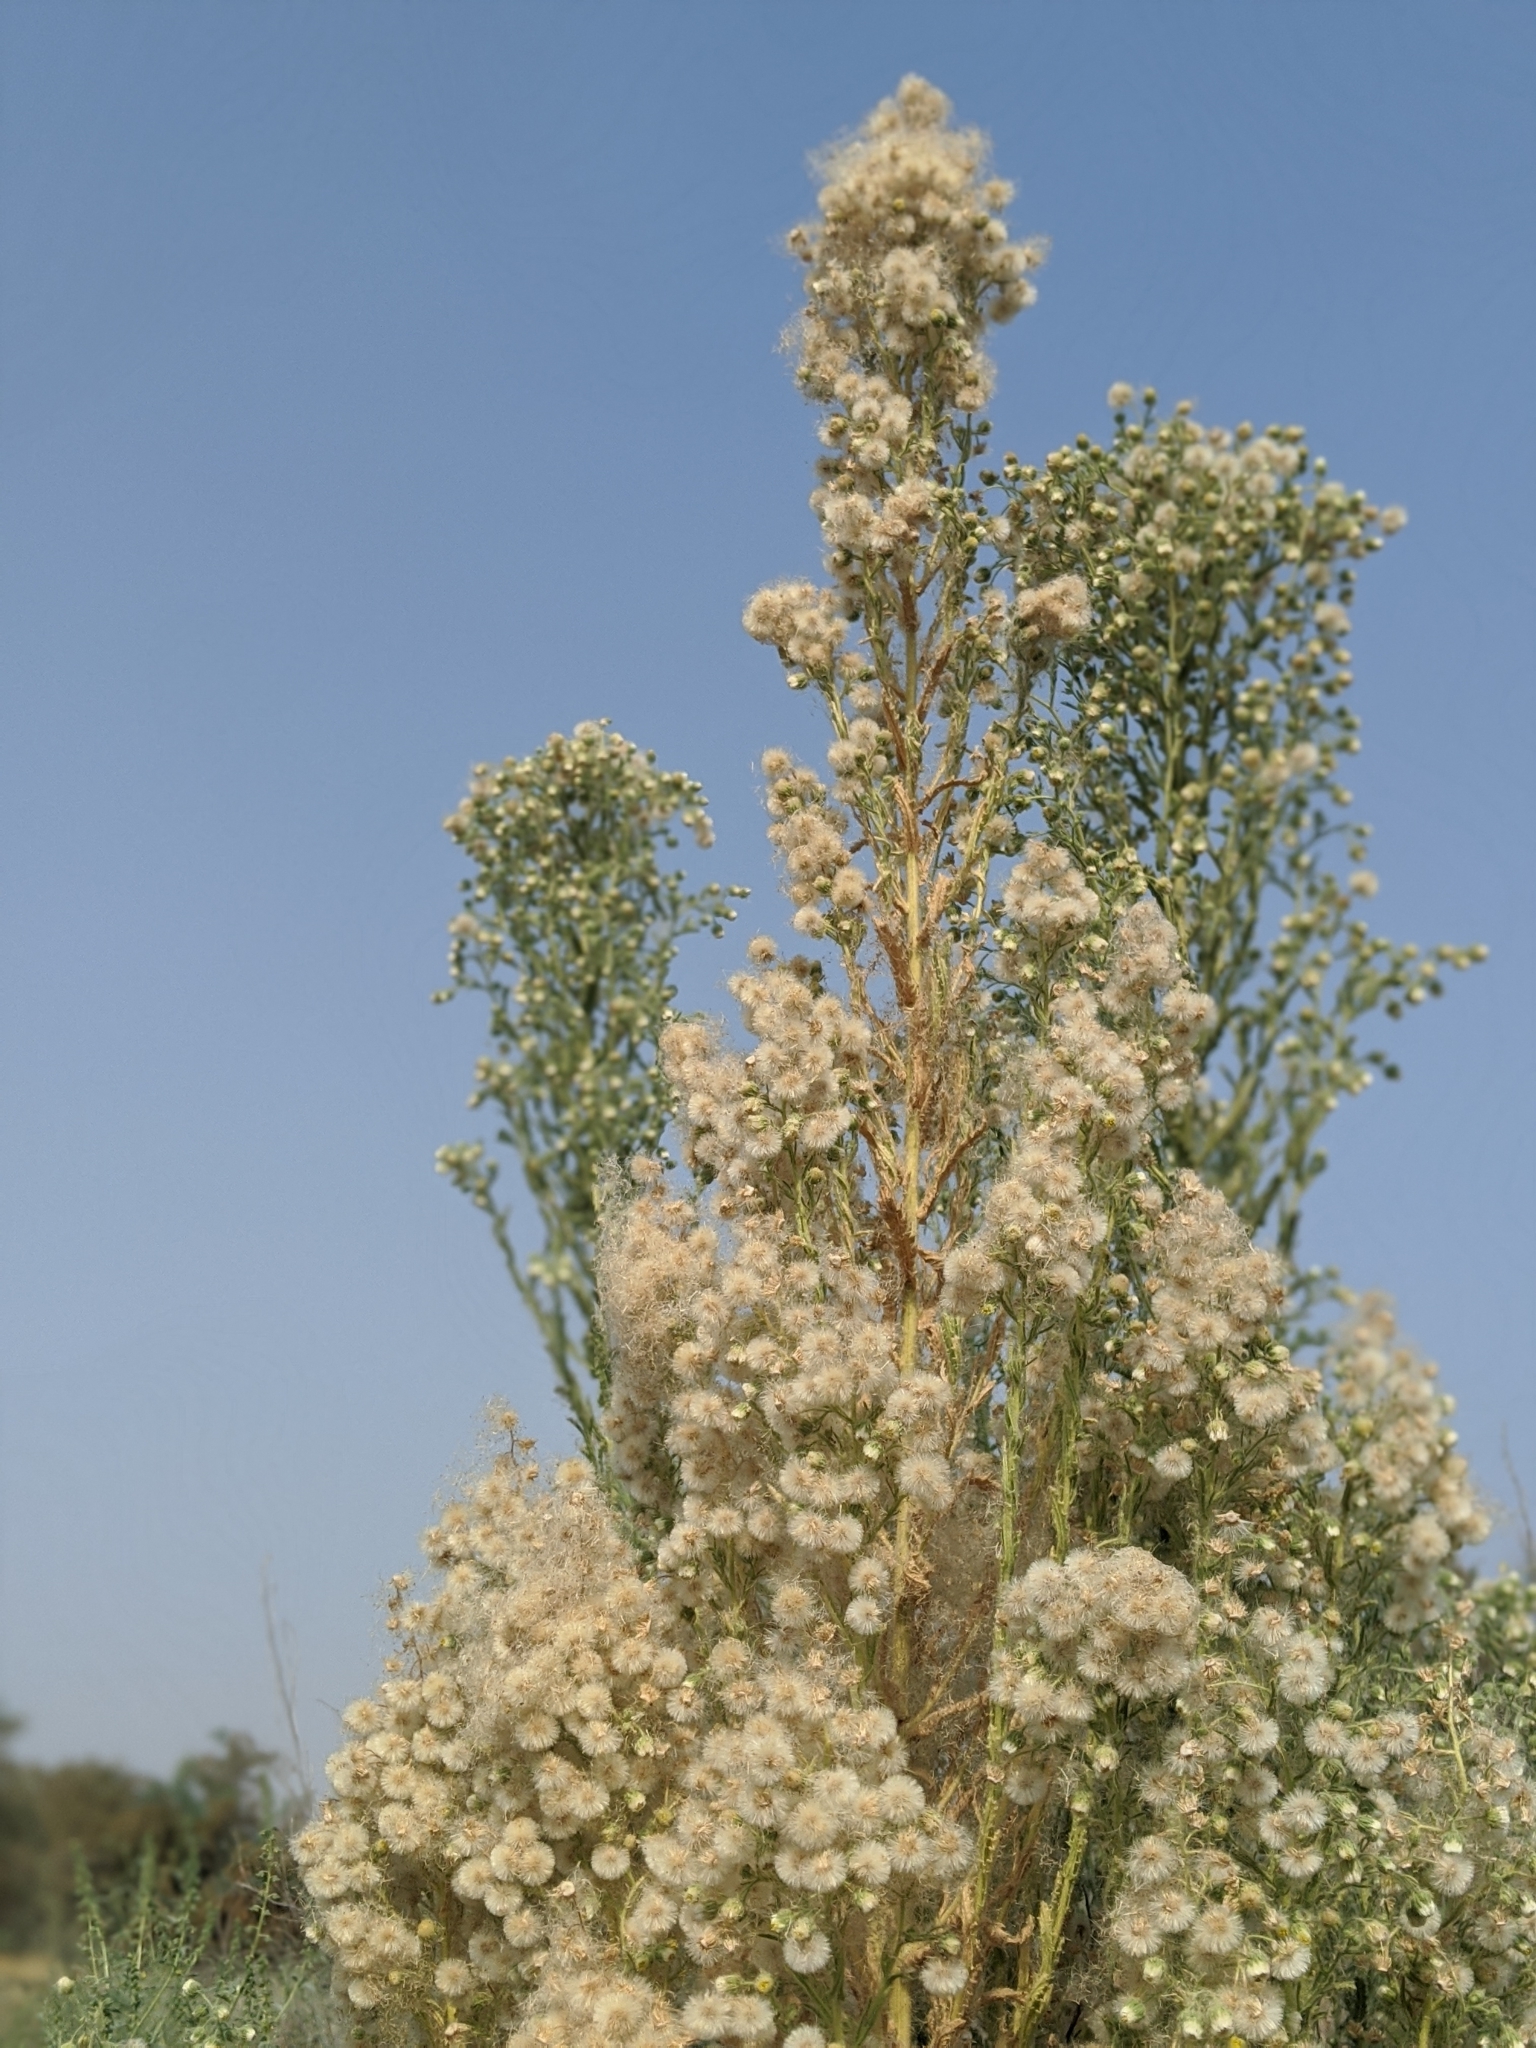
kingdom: Plantae
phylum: Tracheophyta
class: Magnoliopsida
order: Asterales
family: Asteraceae
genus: Laennecia
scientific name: Laennecia coulteri
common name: Coulter's woolwort
